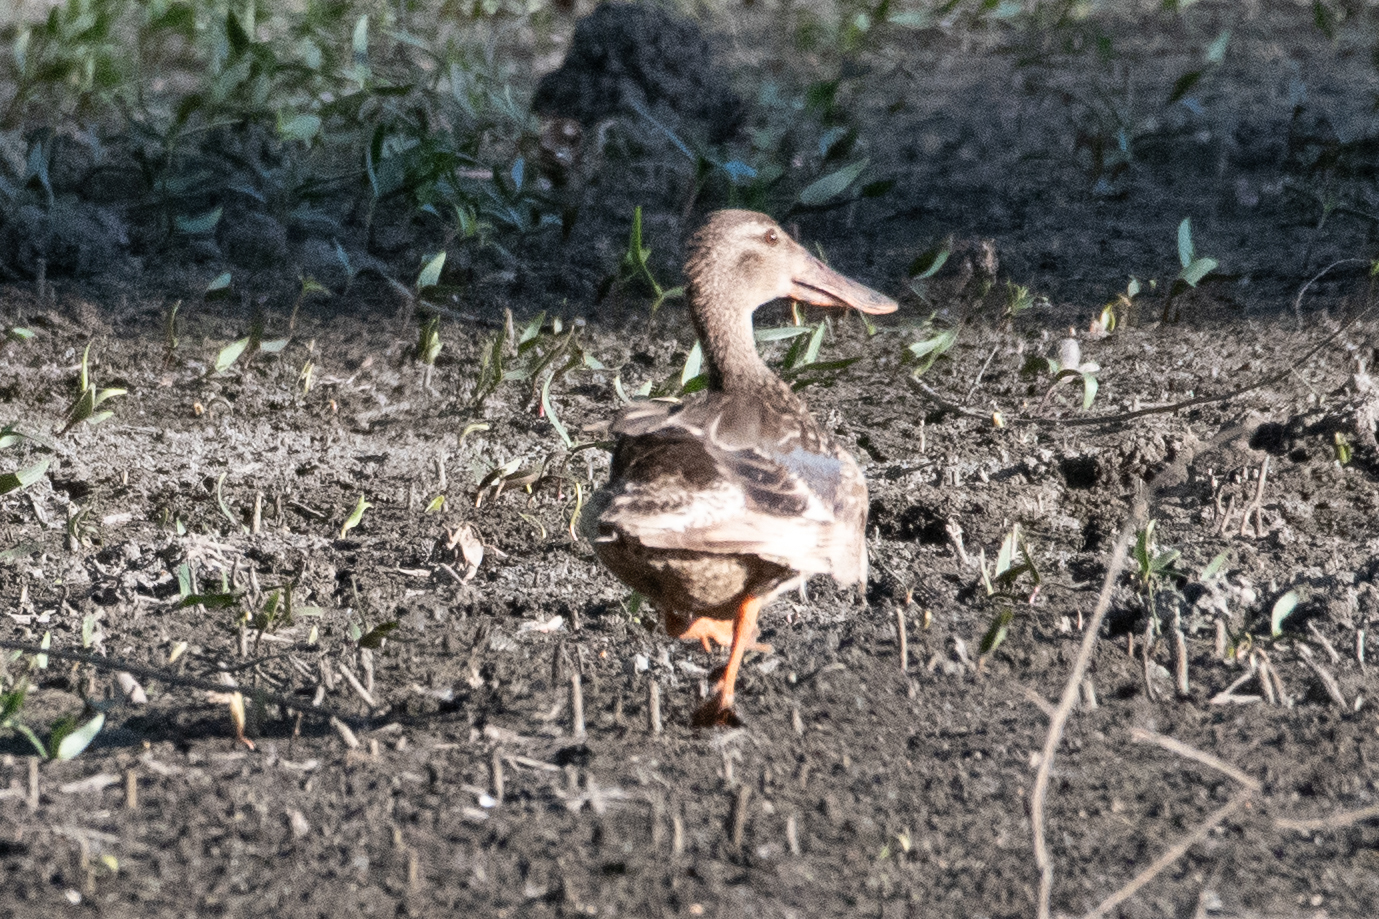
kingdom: Animalia
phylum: Chordata
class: Aves
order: Anseriformes
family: Anatidae
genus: Spatula
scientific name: Spatula clypeata
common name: Northern shoveler
